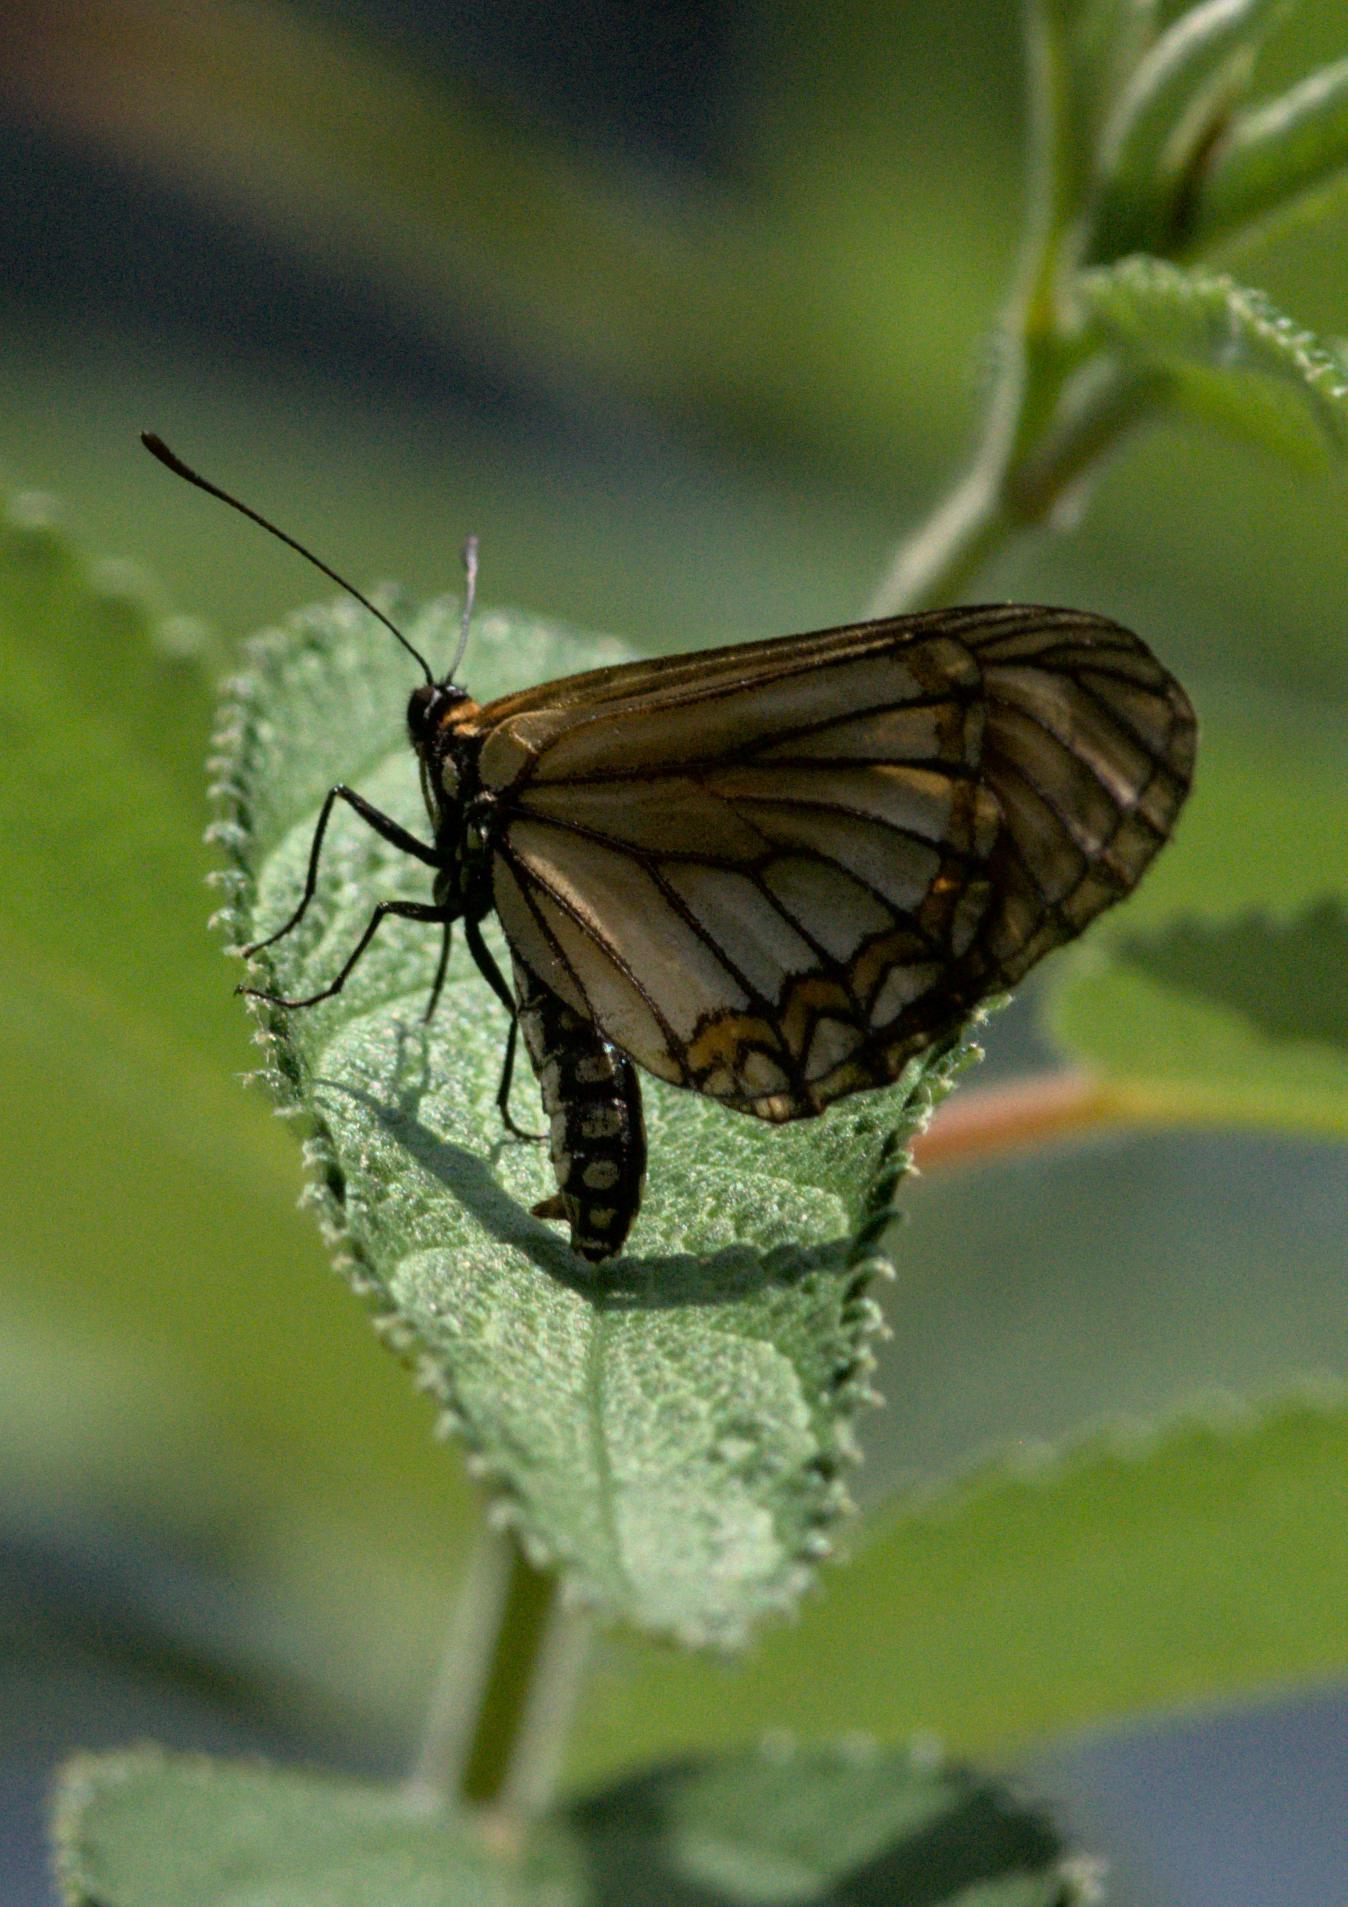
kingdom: Animalia
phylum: Arthropoda
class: Insecta
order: Lepidoptera
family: Nymphalidae
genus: Acraea
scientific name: Acraea Telchinia issoria
